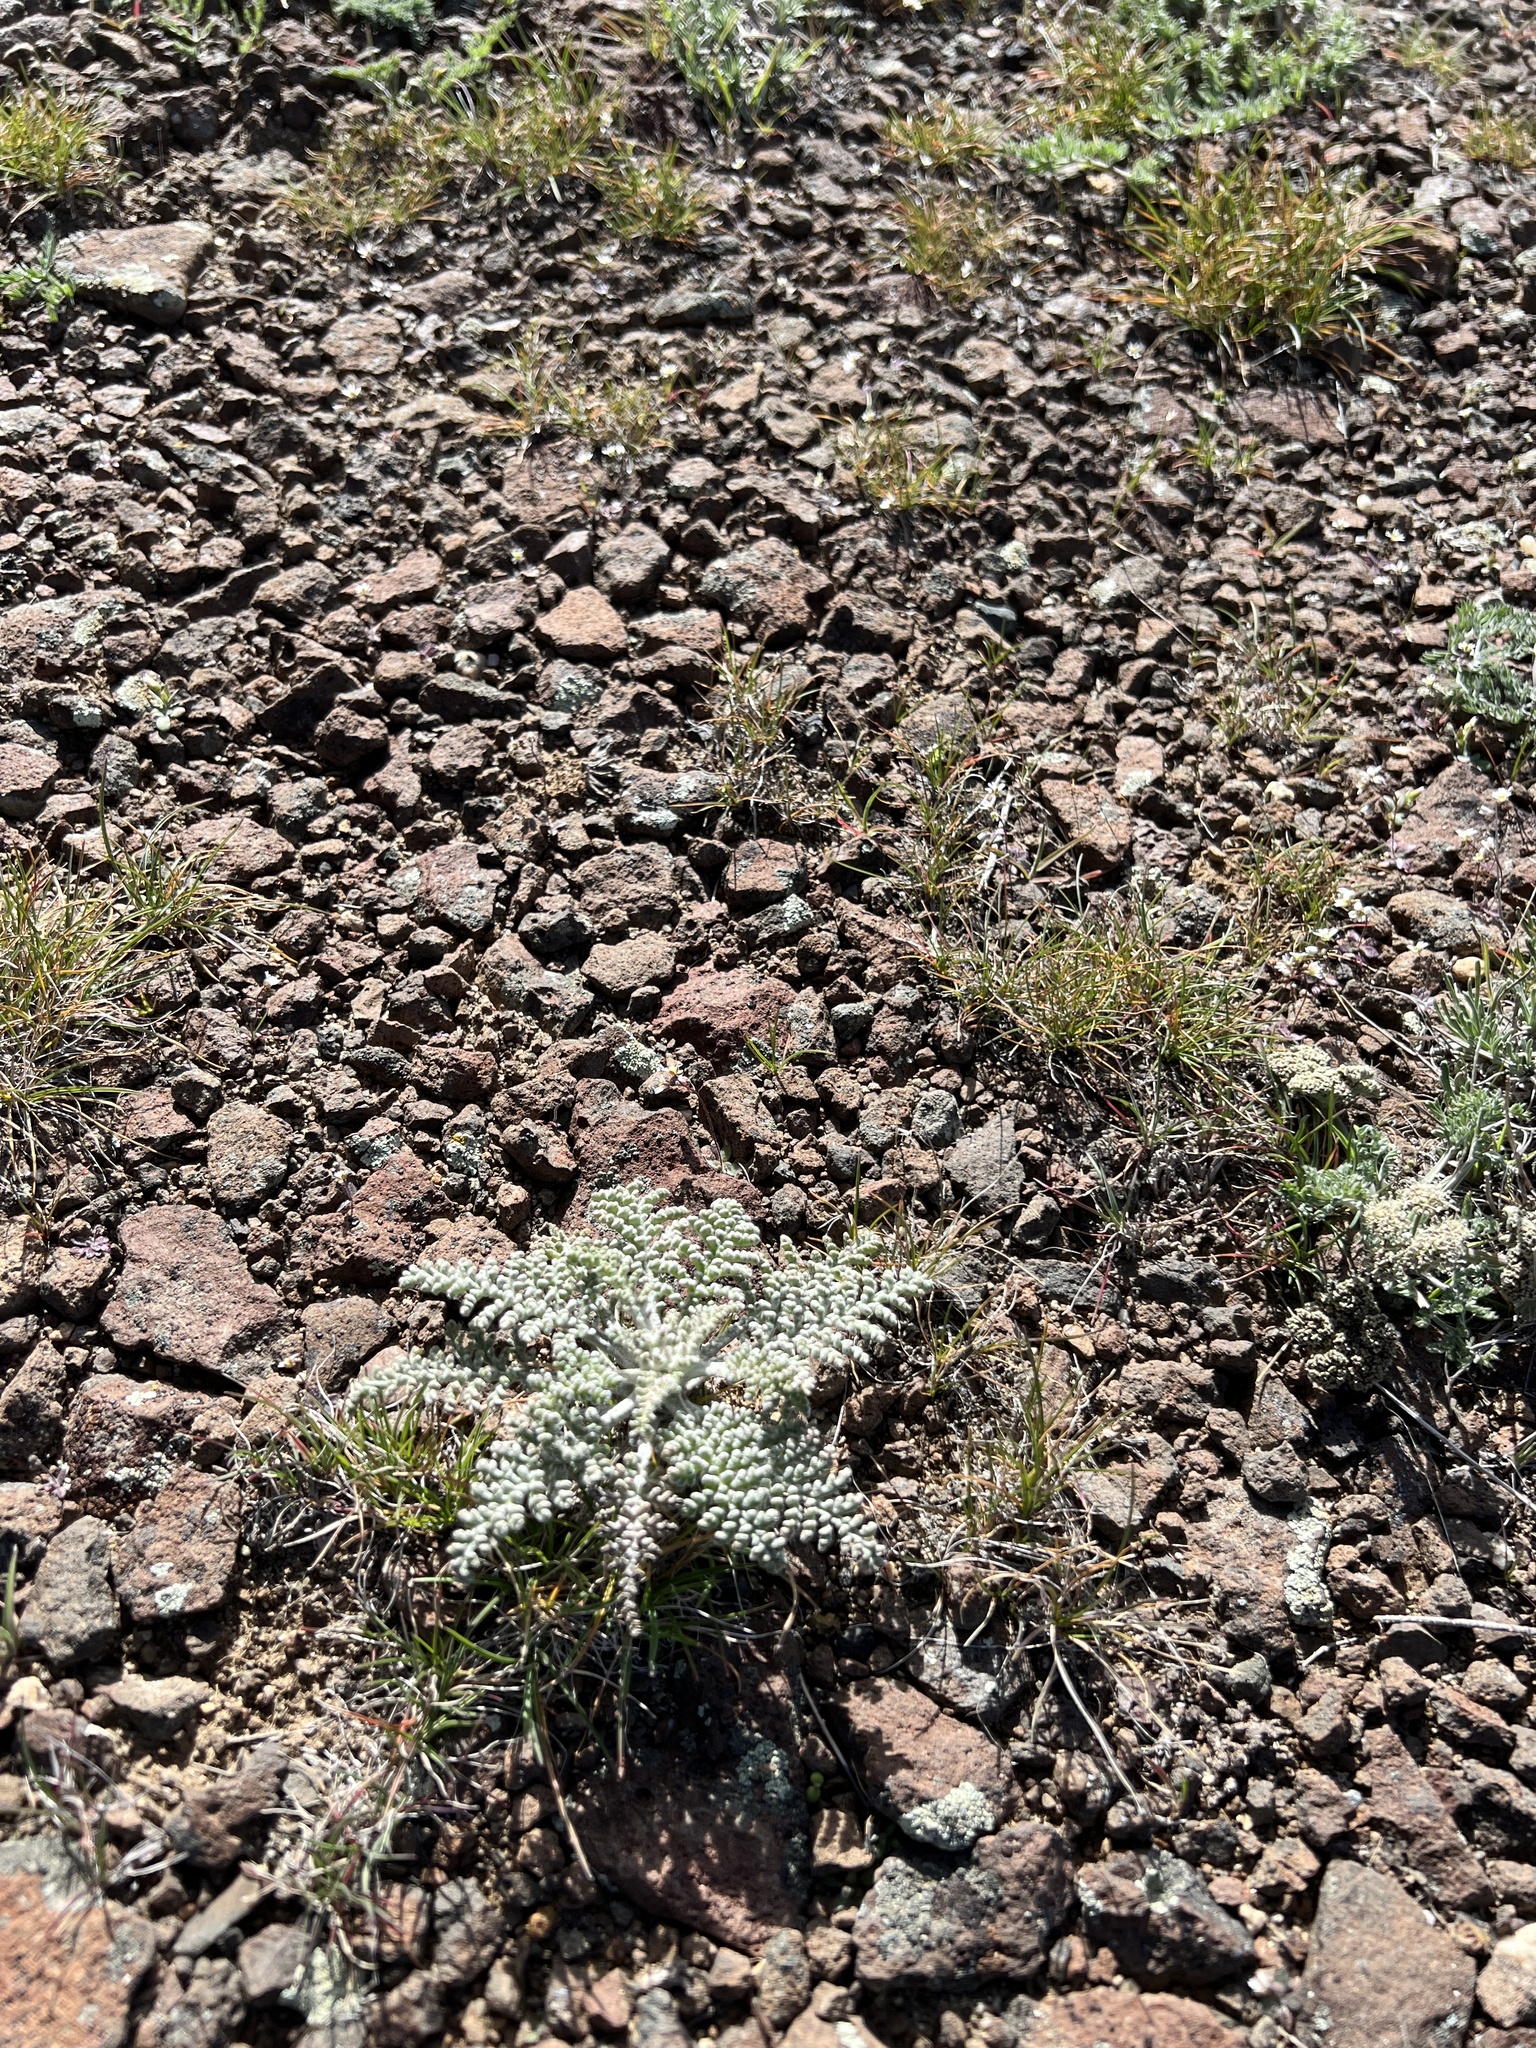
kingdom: Plantae
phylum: Tracheophyta
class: Magnoliopsida
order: Asterales
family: Asteraceae
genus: Chaenactis
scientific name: Chaenactis douglasii
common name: Hoary pincushion
